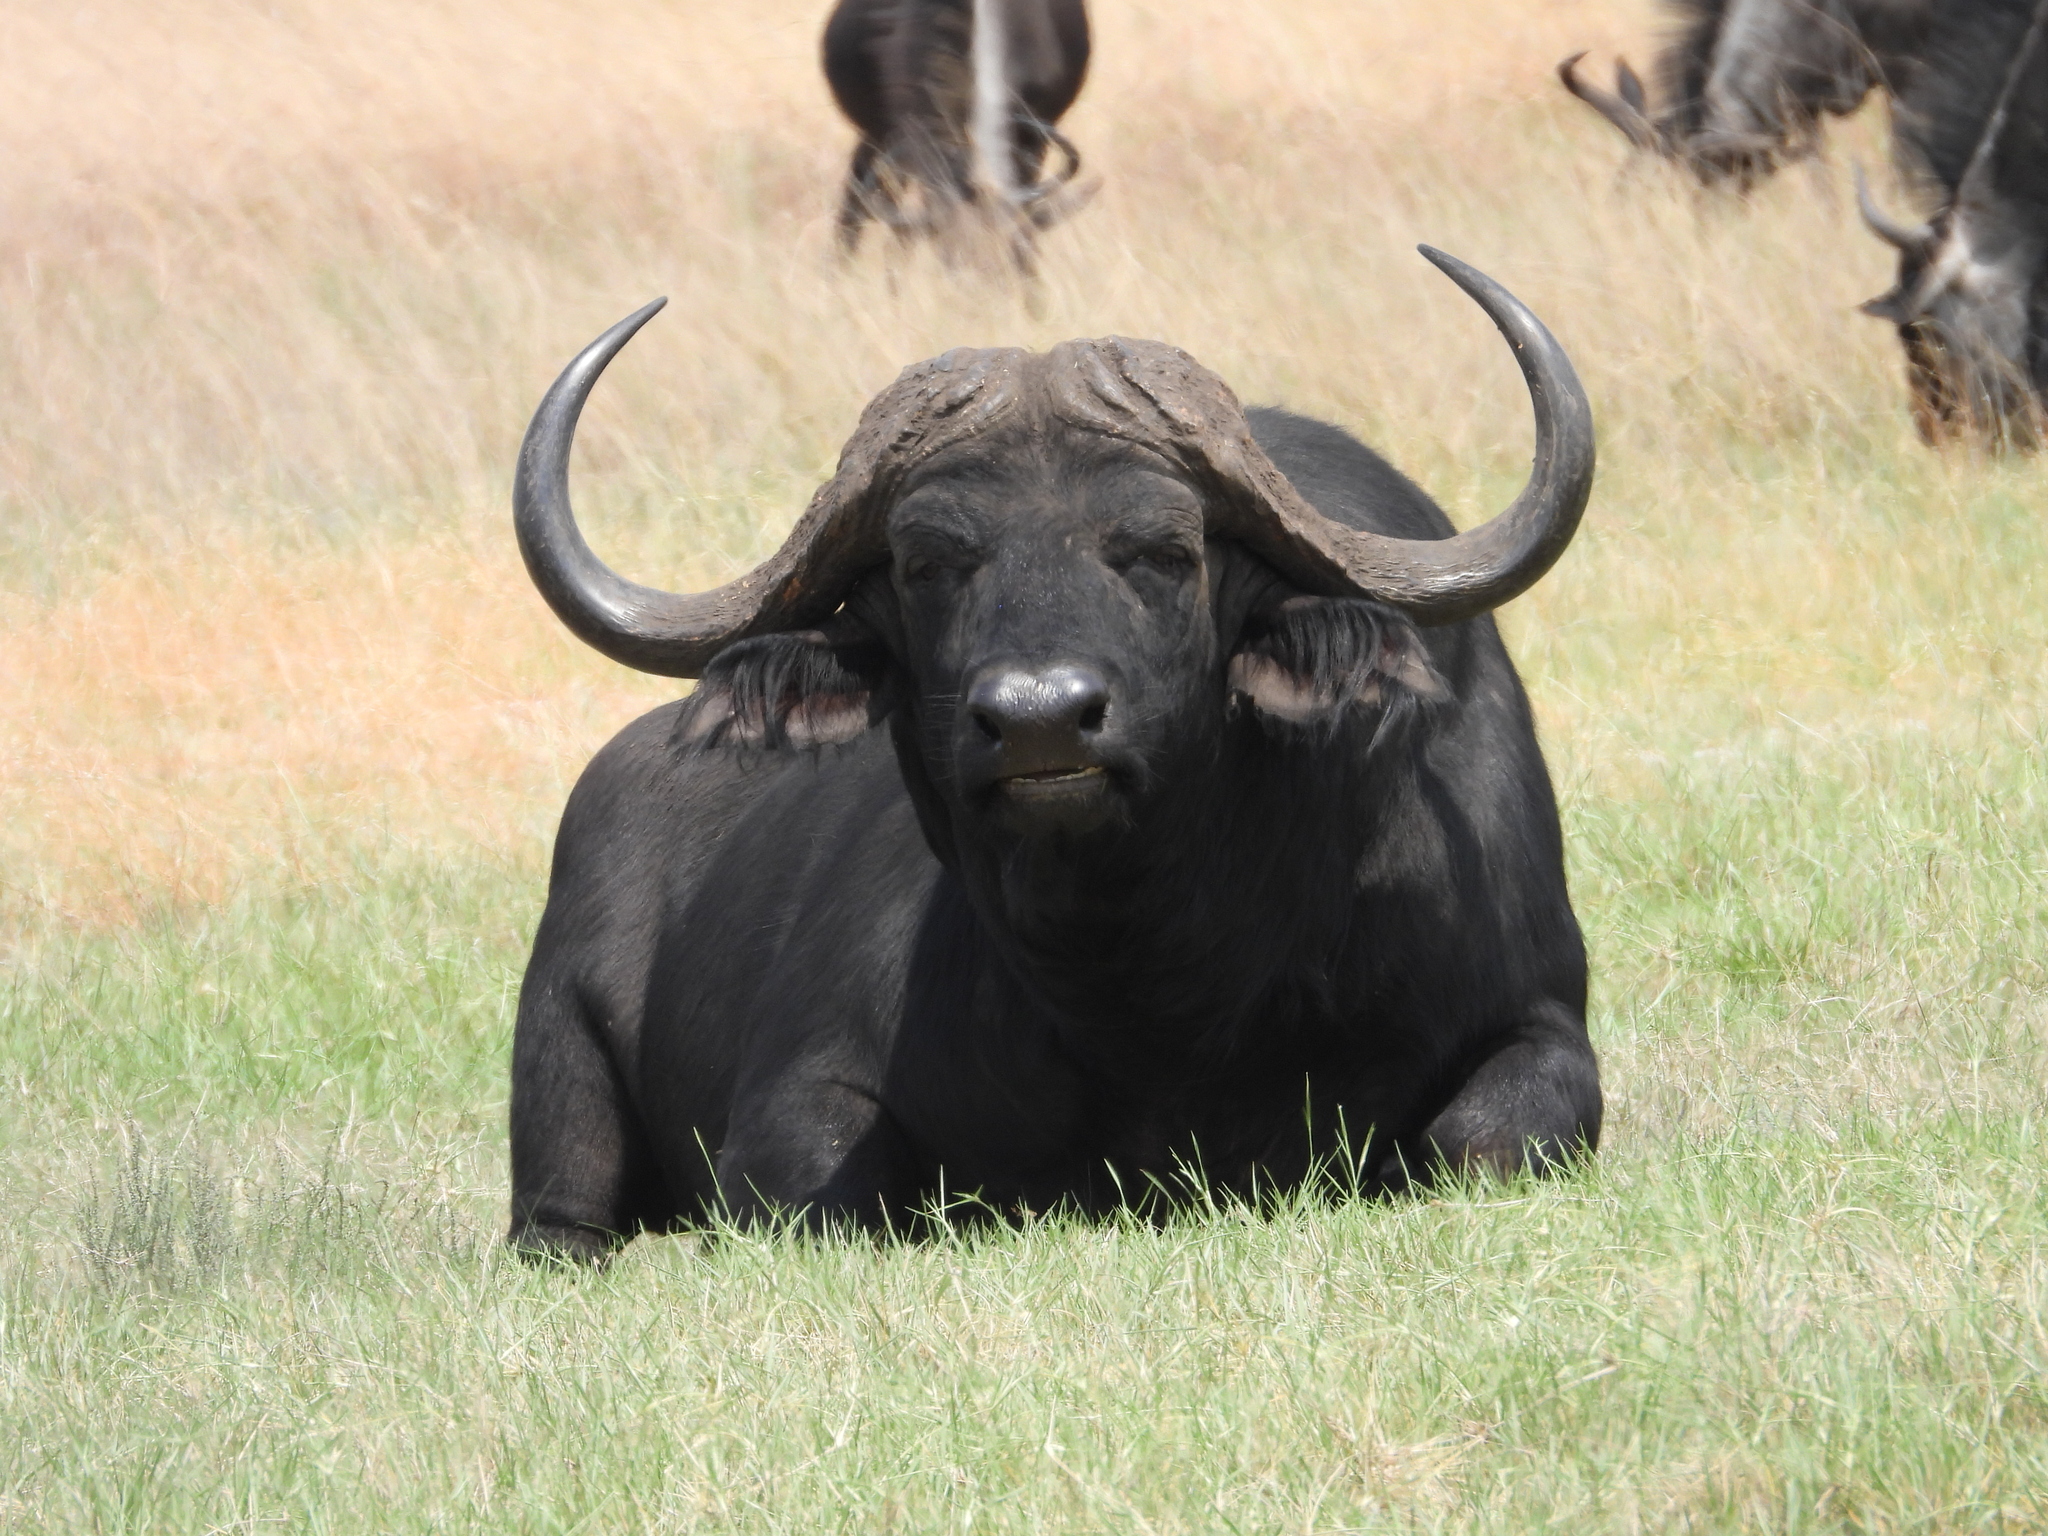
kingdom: Animalia
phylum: Chordata
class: Mammalia
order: Artiodactyla
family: Bovidae
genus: Syncerus
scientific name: Syncerus caffer
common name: African buffalo
